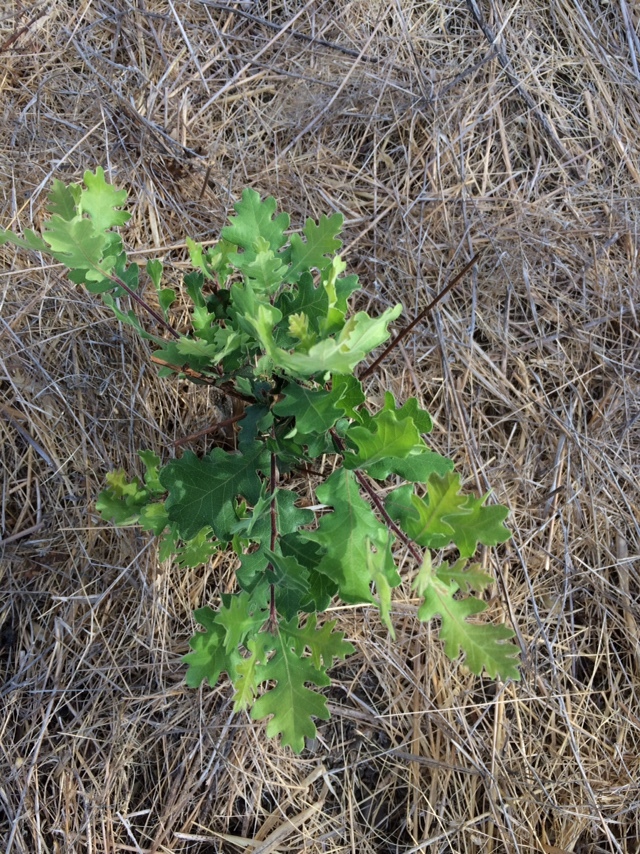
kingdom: Plantae
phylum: Tracheophyta
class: Magnoliopsida
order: Fagales
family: Fagaceae
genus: Quercus
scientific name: Quercus lobata
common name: Valley oak
